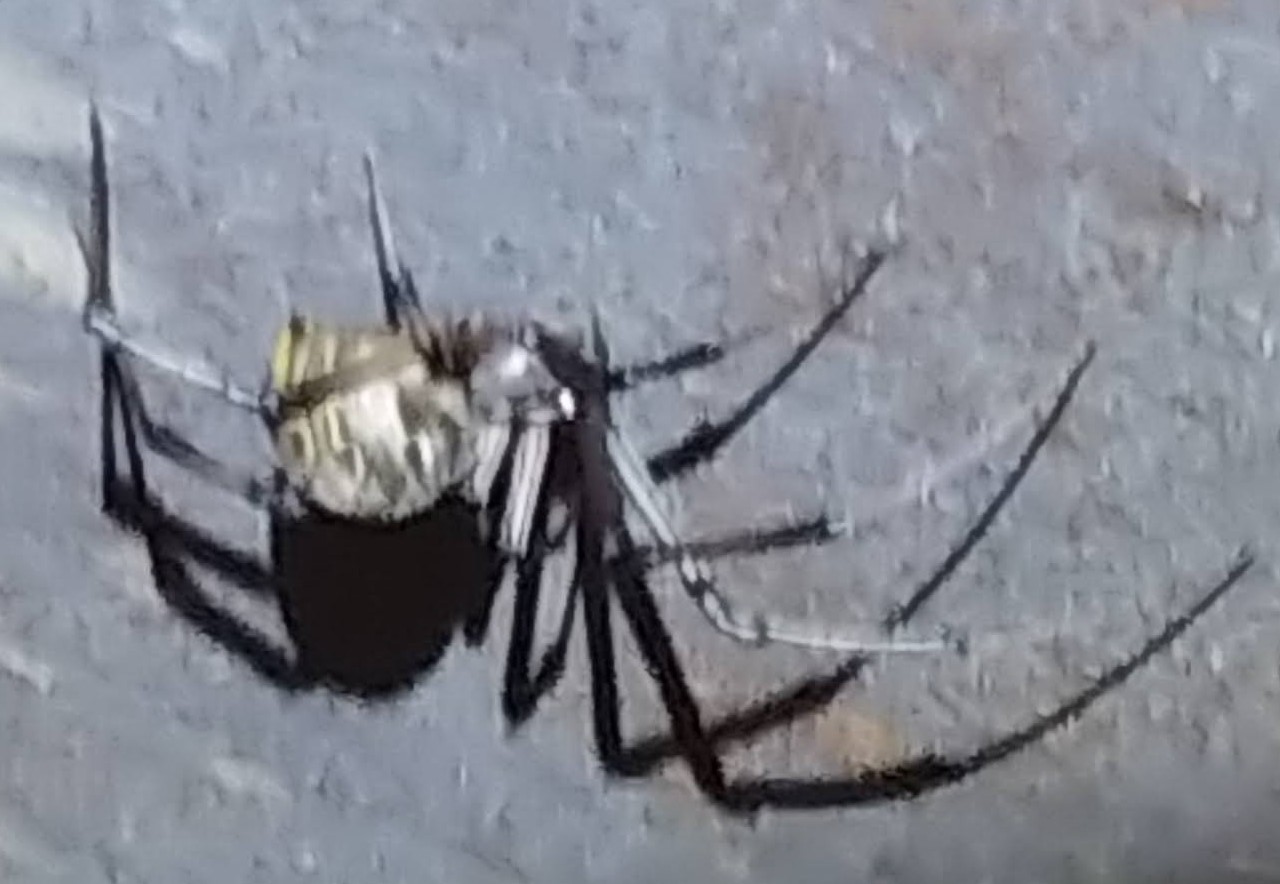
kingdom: Animalia
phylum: Arthropoda
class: Arachnida
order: Araneae
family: Theridiidae
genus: Latrodectus
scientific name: Latrodectus geometricus
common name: Brown widow spider
